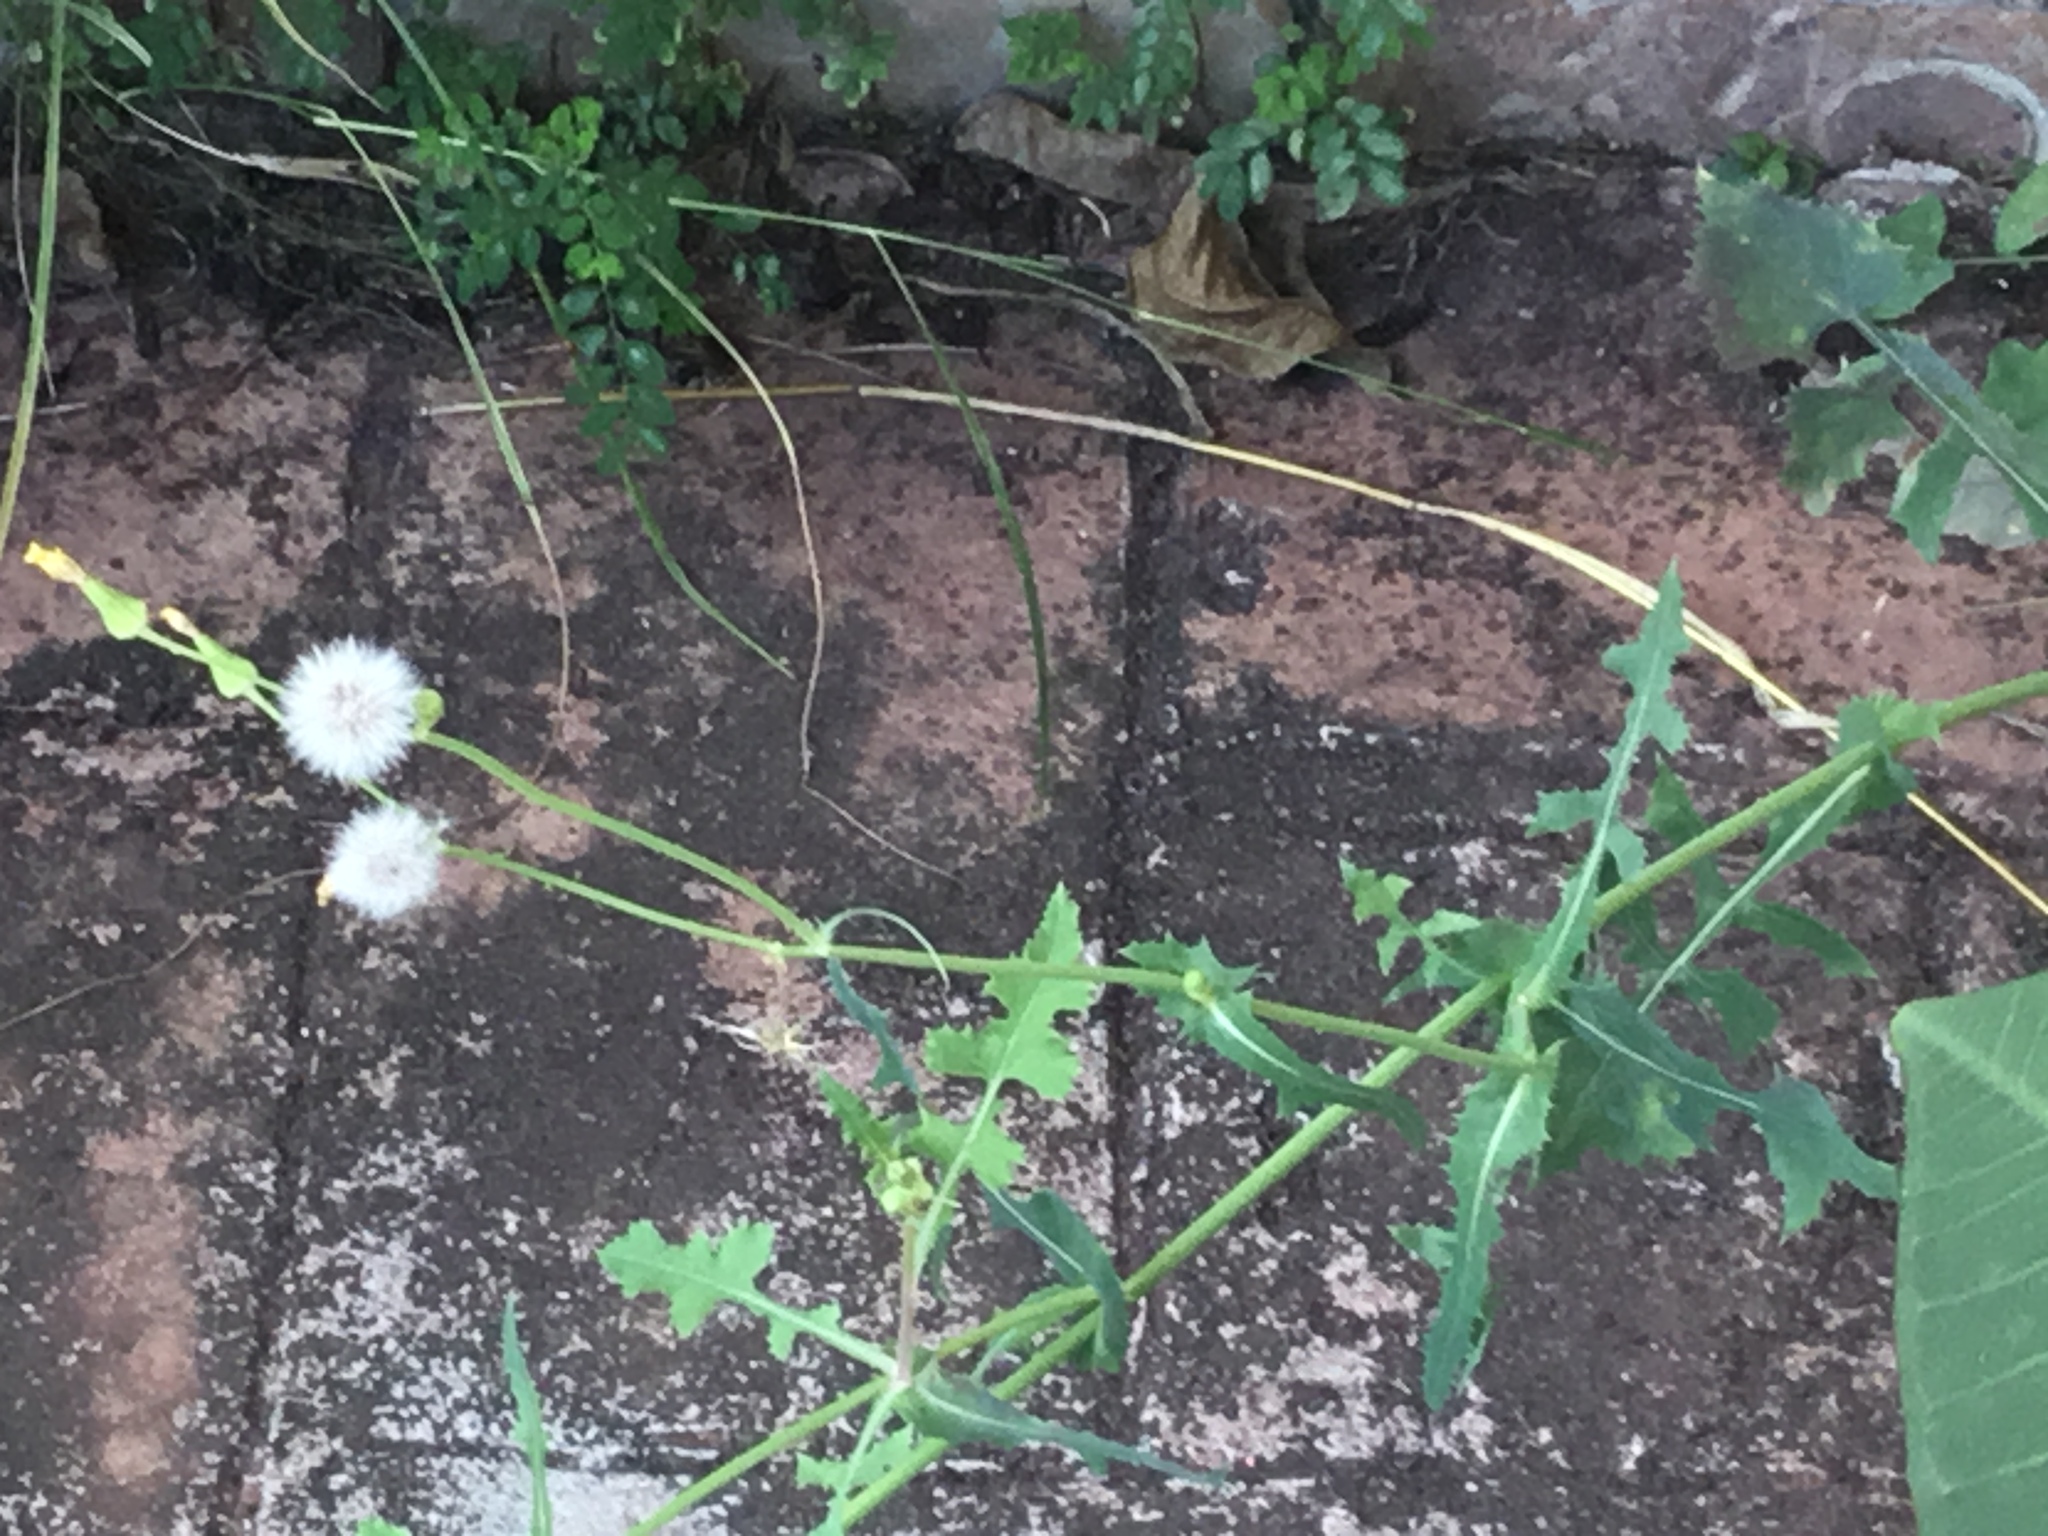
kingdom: Plantae
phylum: Tracheophyta
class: Magnoliopsida
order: Asterales
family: Asteraceae
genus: Sonchus
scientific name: Sonchus oleraceus
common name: Common sowthistle
